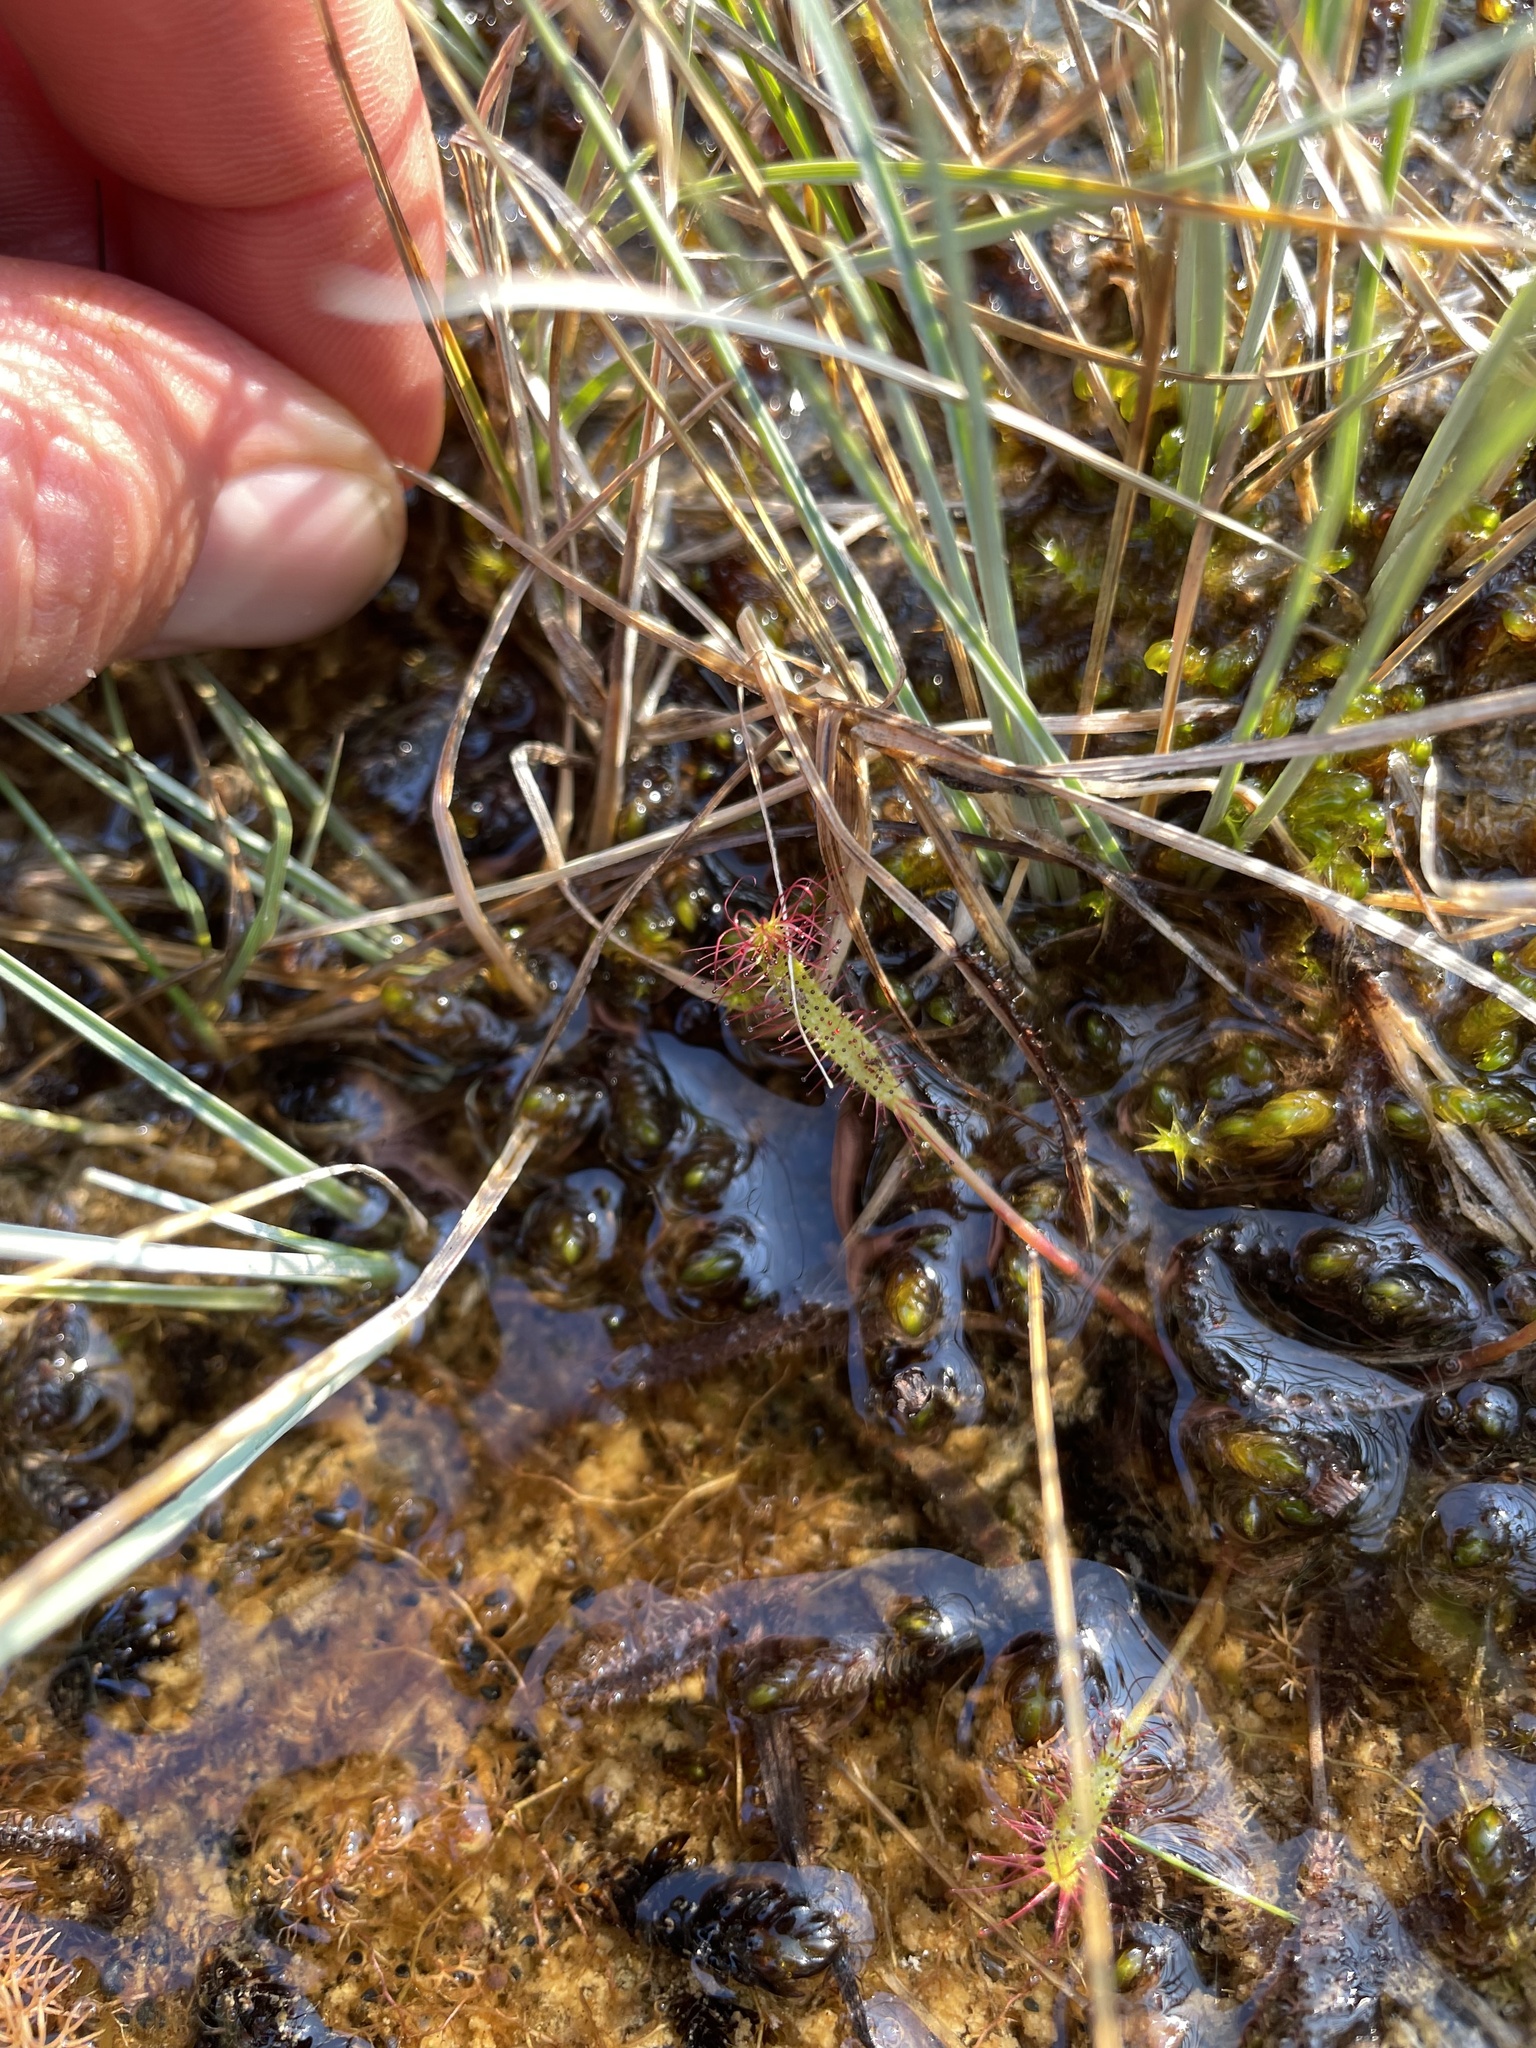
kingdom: Plantae
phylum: Tracheophyta
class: Magnoliopsida
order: Caryophyllales
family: Droseraceae
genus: Drosera
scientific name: Drosera linearis
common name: Linear-leaved sundew
